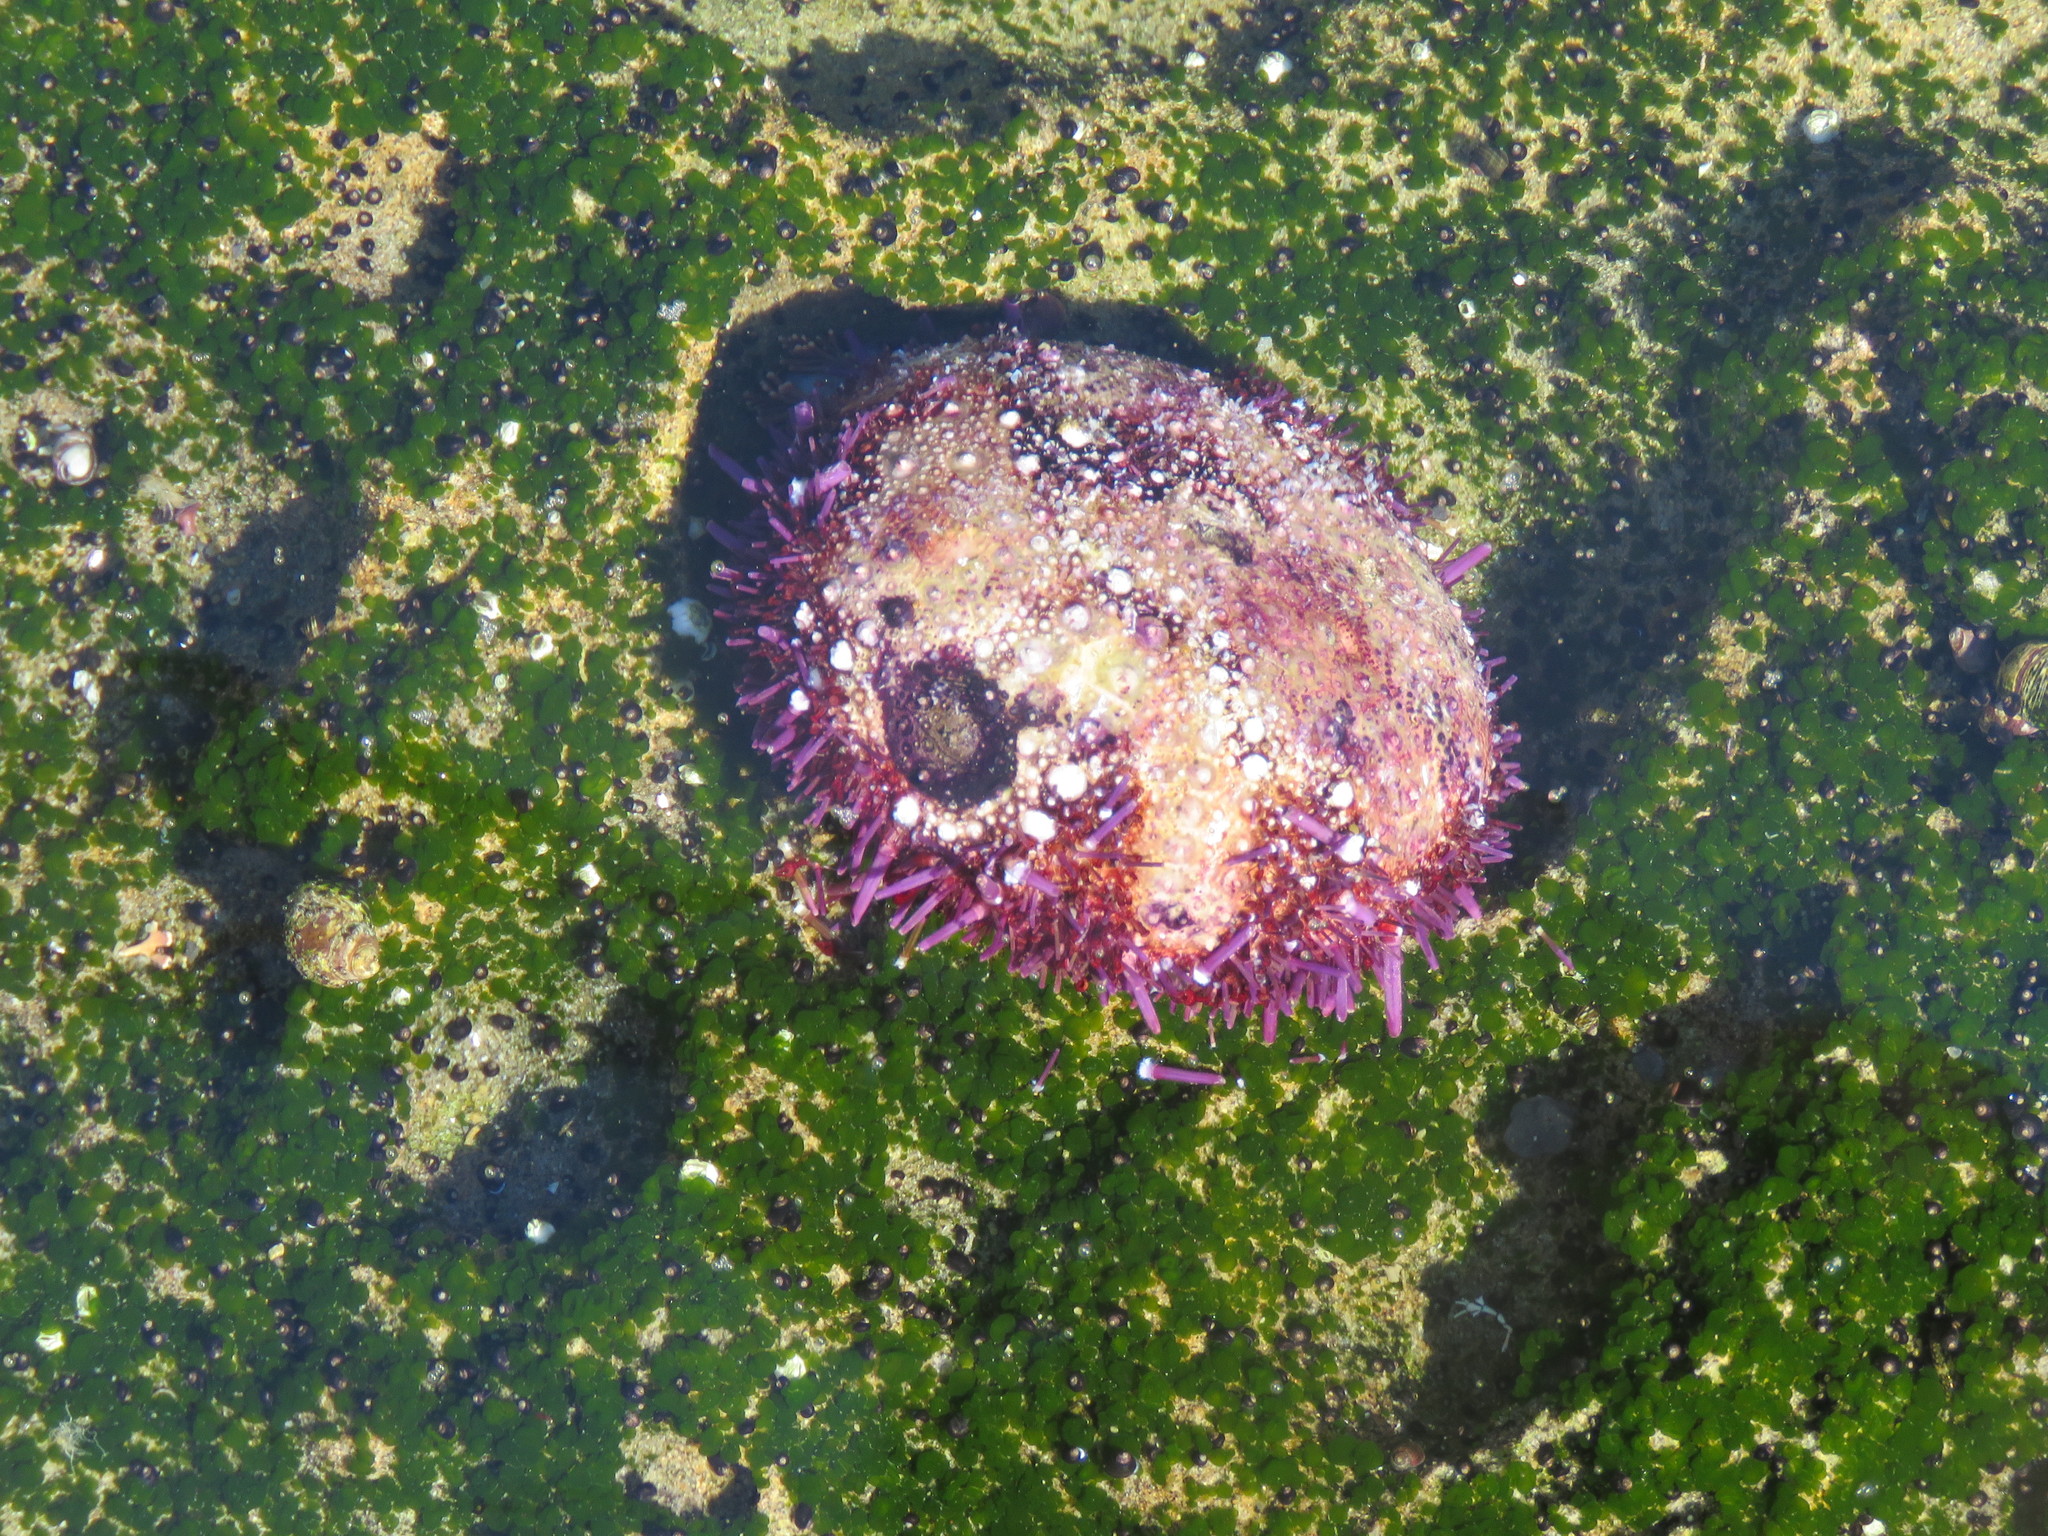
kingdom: Animalia
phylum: Echinodermata
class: Echinoidea
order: Camarodonta
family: Strongylocentrotidae
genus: Strongylocentrotus
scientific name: Strongylocentrotus purpuratus
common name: Purple sea urchin
